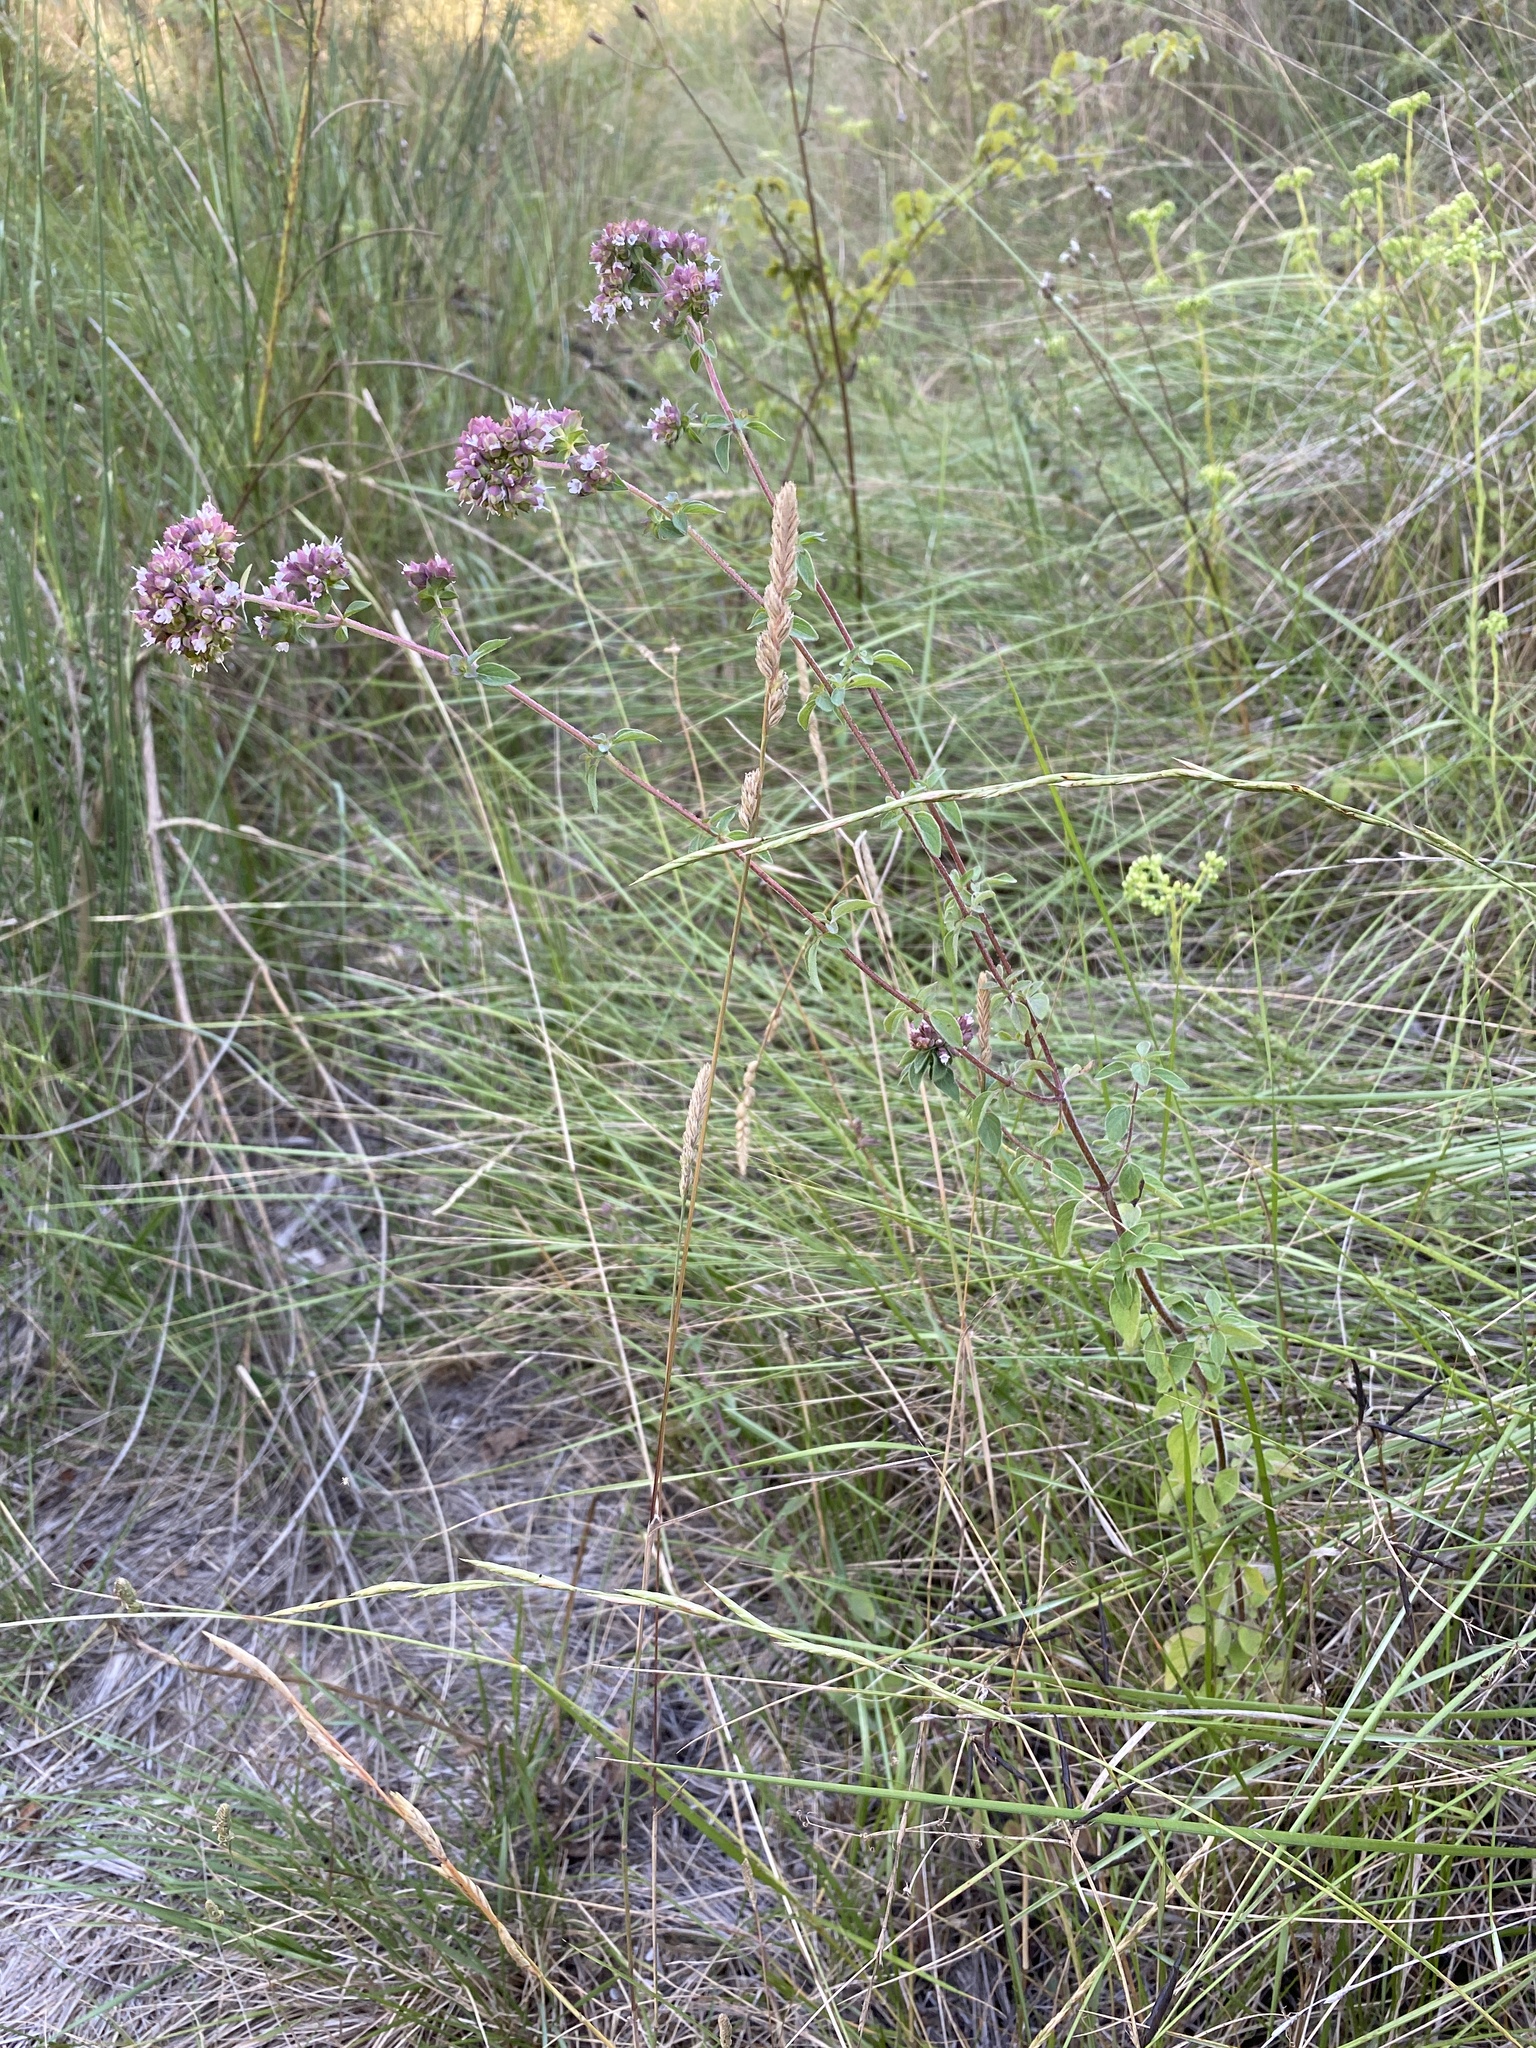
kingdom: Plantae
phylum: Tracheophyta
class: Magnoliopsida
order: Lamiales
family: Lamiaceae
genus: Origanum
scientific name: Origanum vulgare
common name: Wild marjoram
